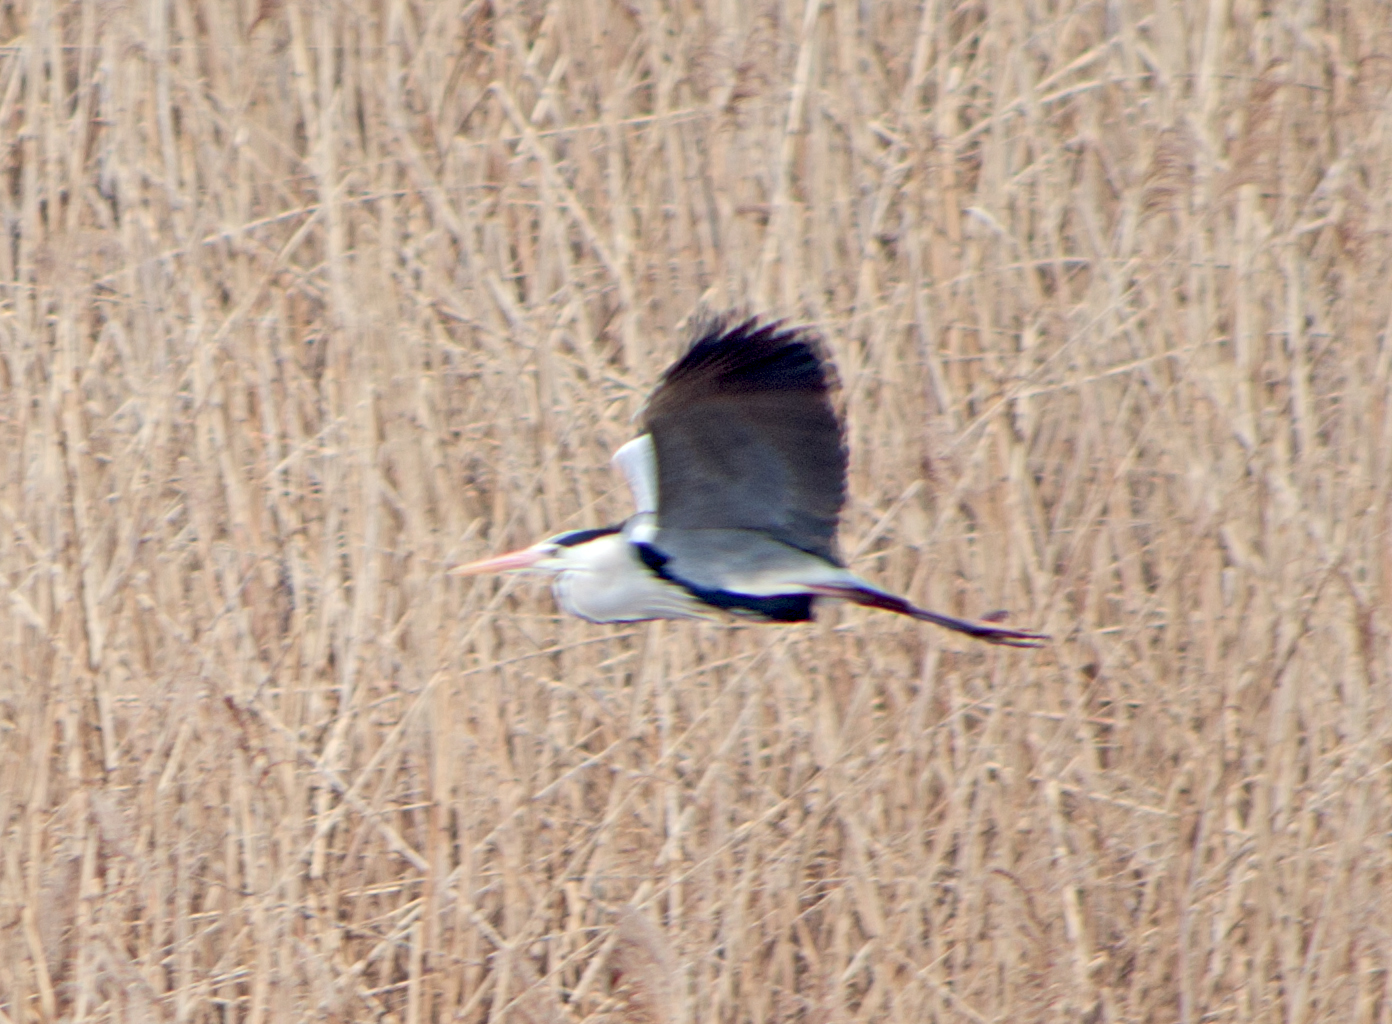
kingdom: Animalia
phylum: Chordata
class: Aves
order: Pelecaniformes
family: Ardeidae
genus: Ardea
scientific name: Ardea cinerea
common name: Grey heron
